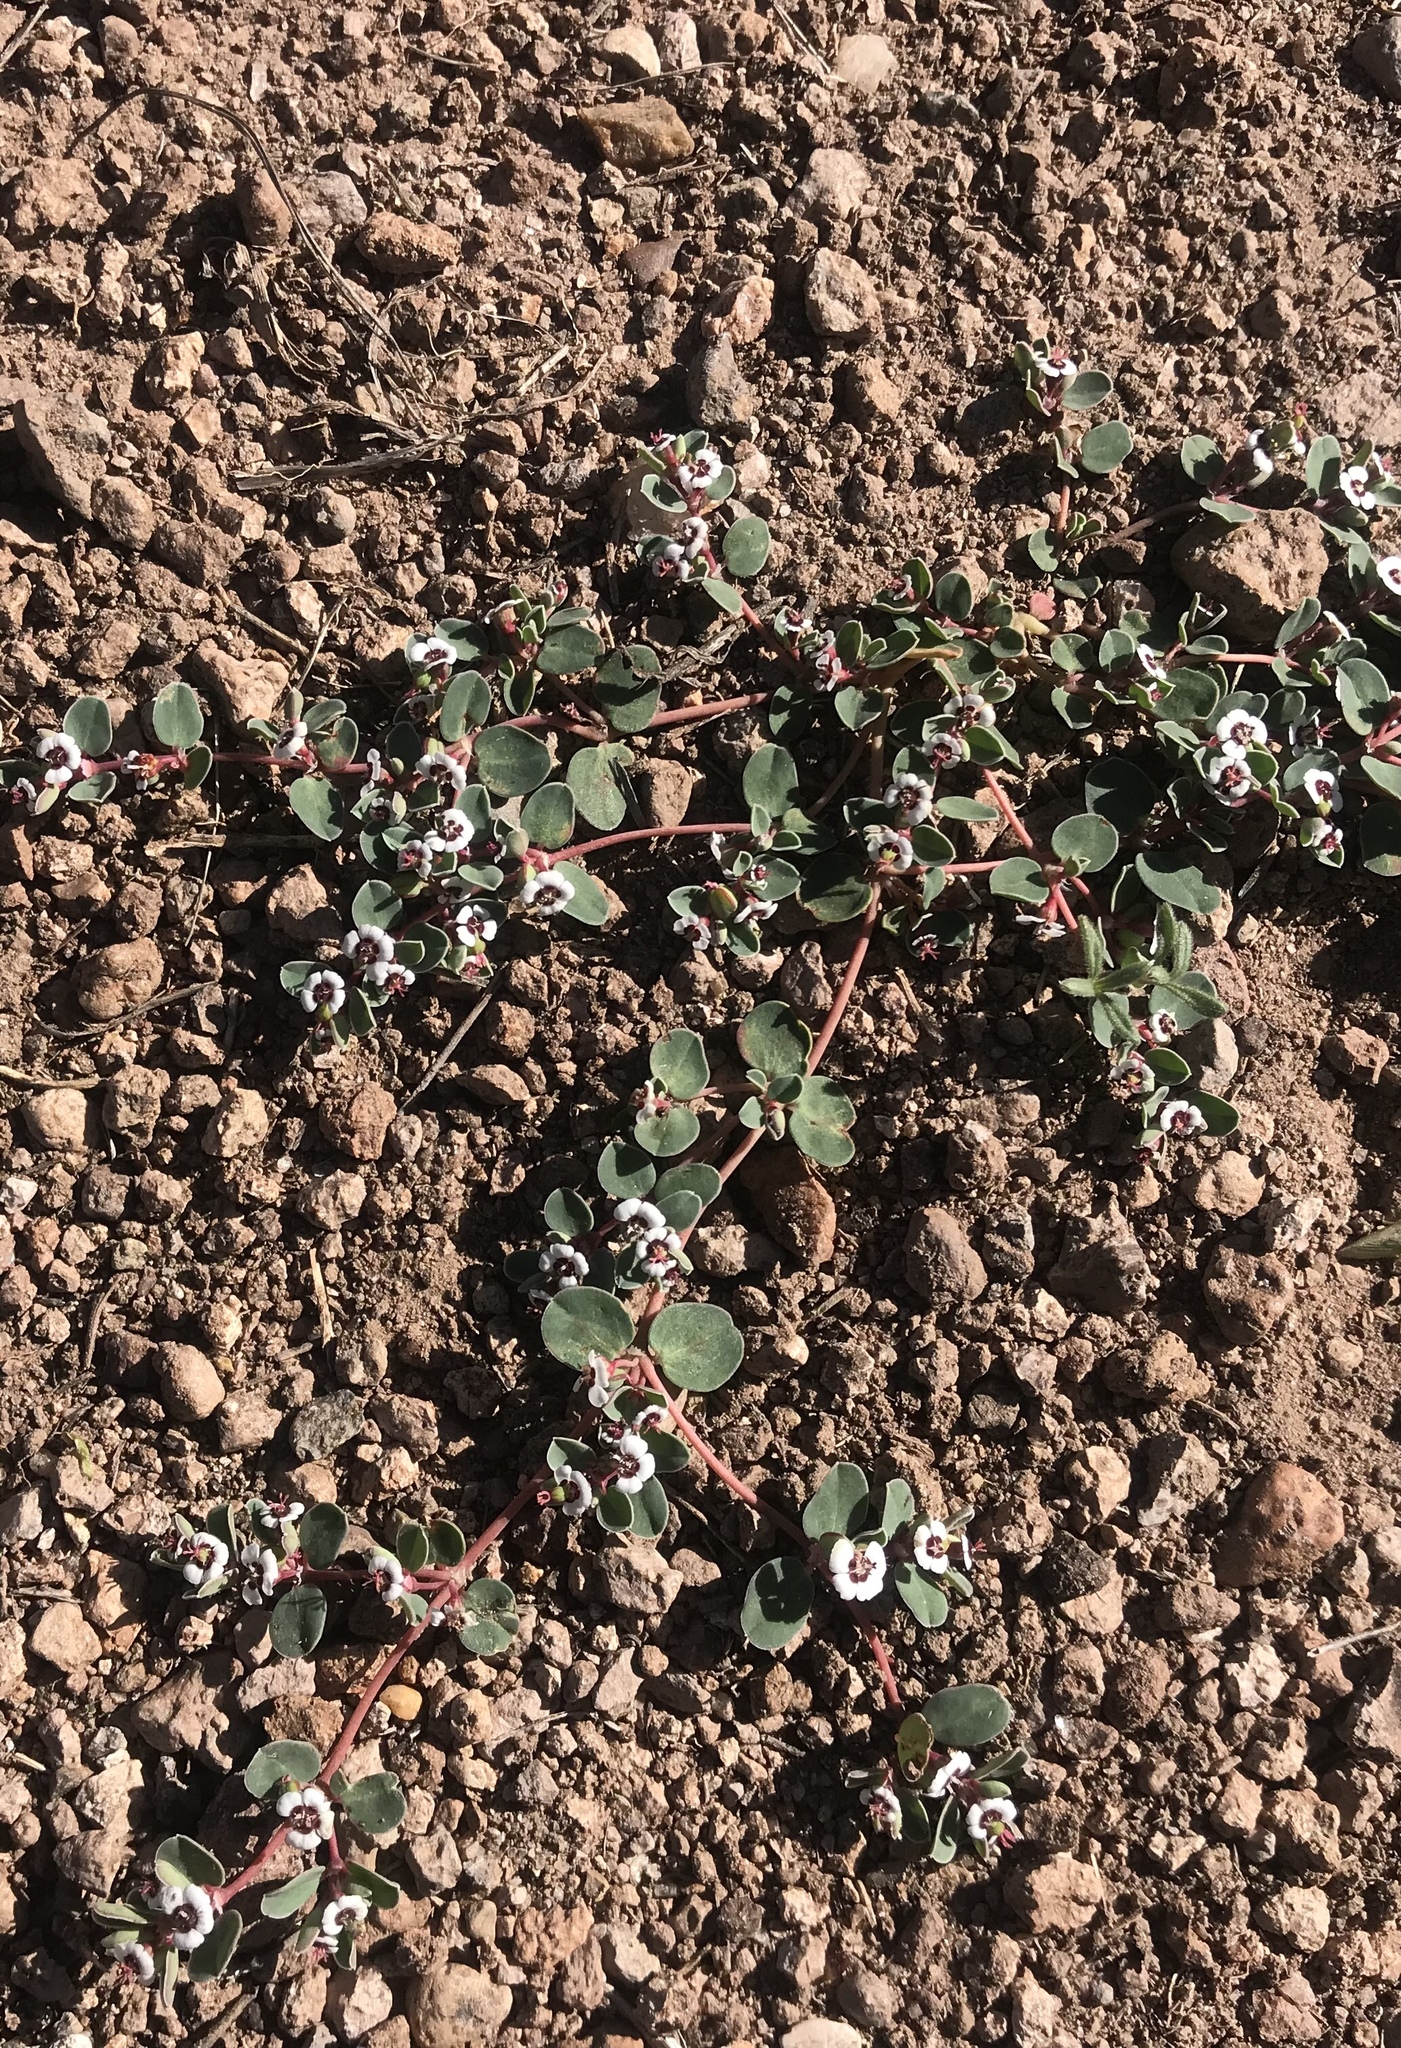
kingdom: Plantae
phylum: Tracheophyta
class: Magnoliopsida
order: Malpighiales
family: Euphorbiaceae
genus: Euphorbia
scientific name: Euphorbia albomarginata
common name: Whitemargin sandmat
